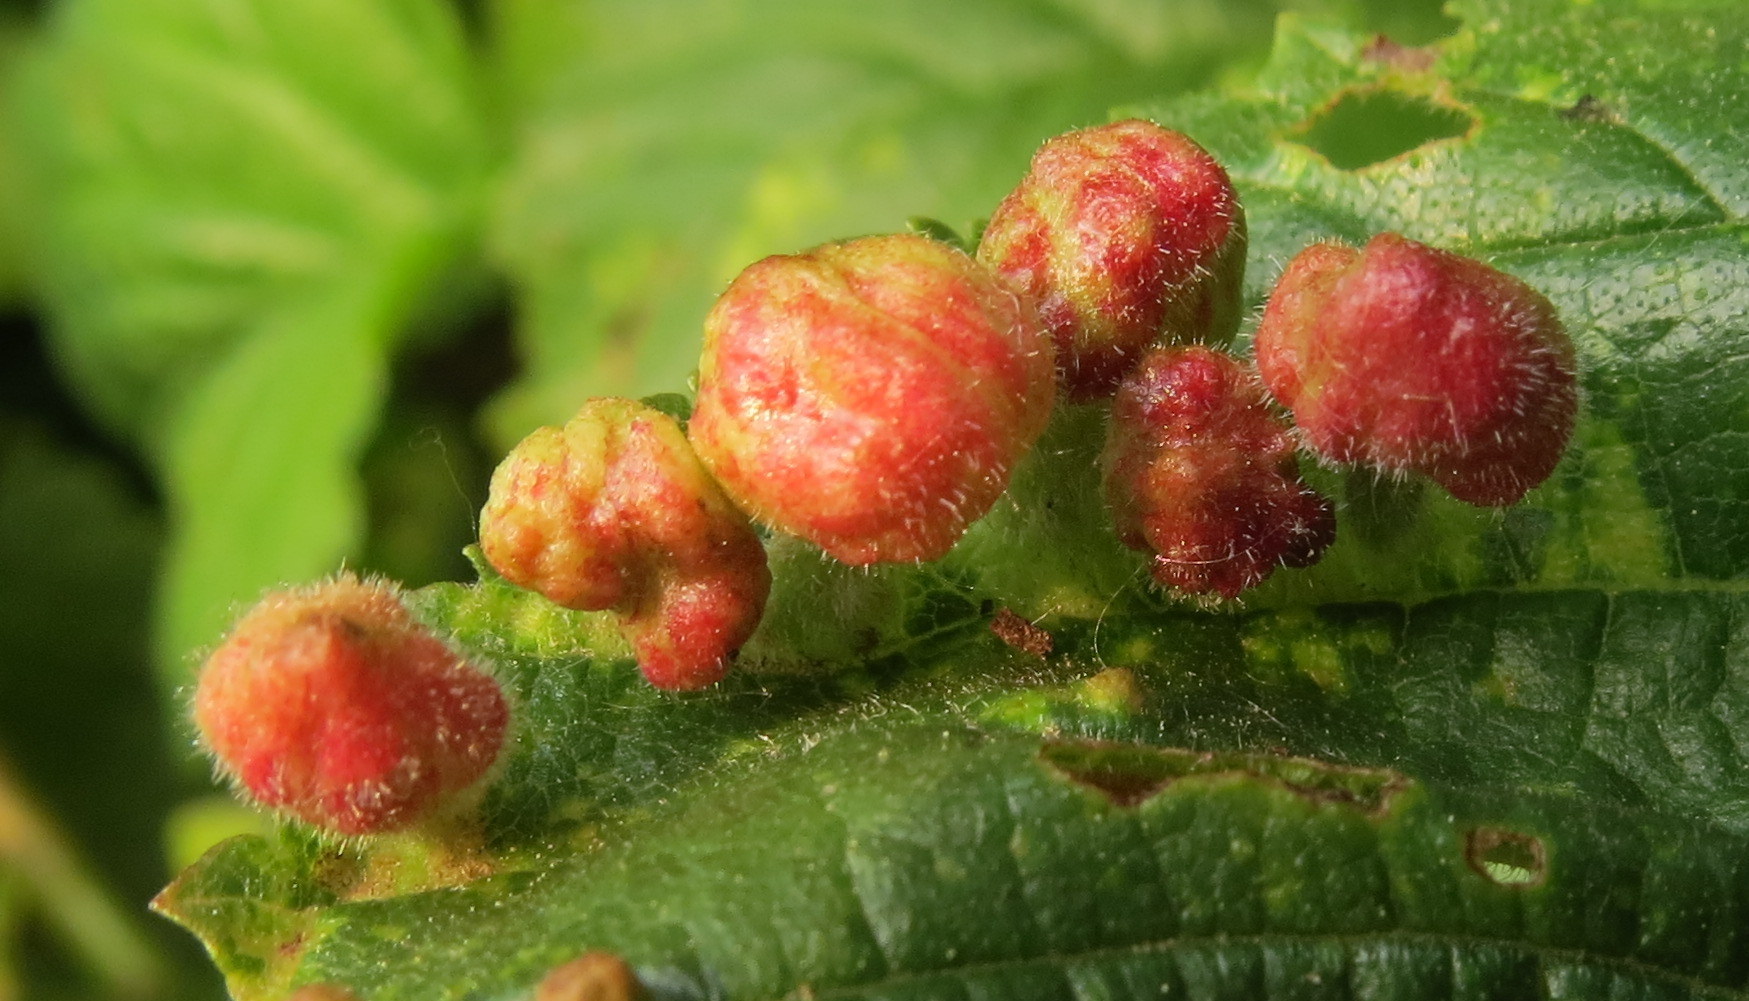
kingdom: Animalia
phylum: Arthropoda
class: Insecta
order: Hemiptera
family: Aphididae
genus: Tetraneura
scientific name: Tetraneura nigriabdominalis
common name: Aphid
